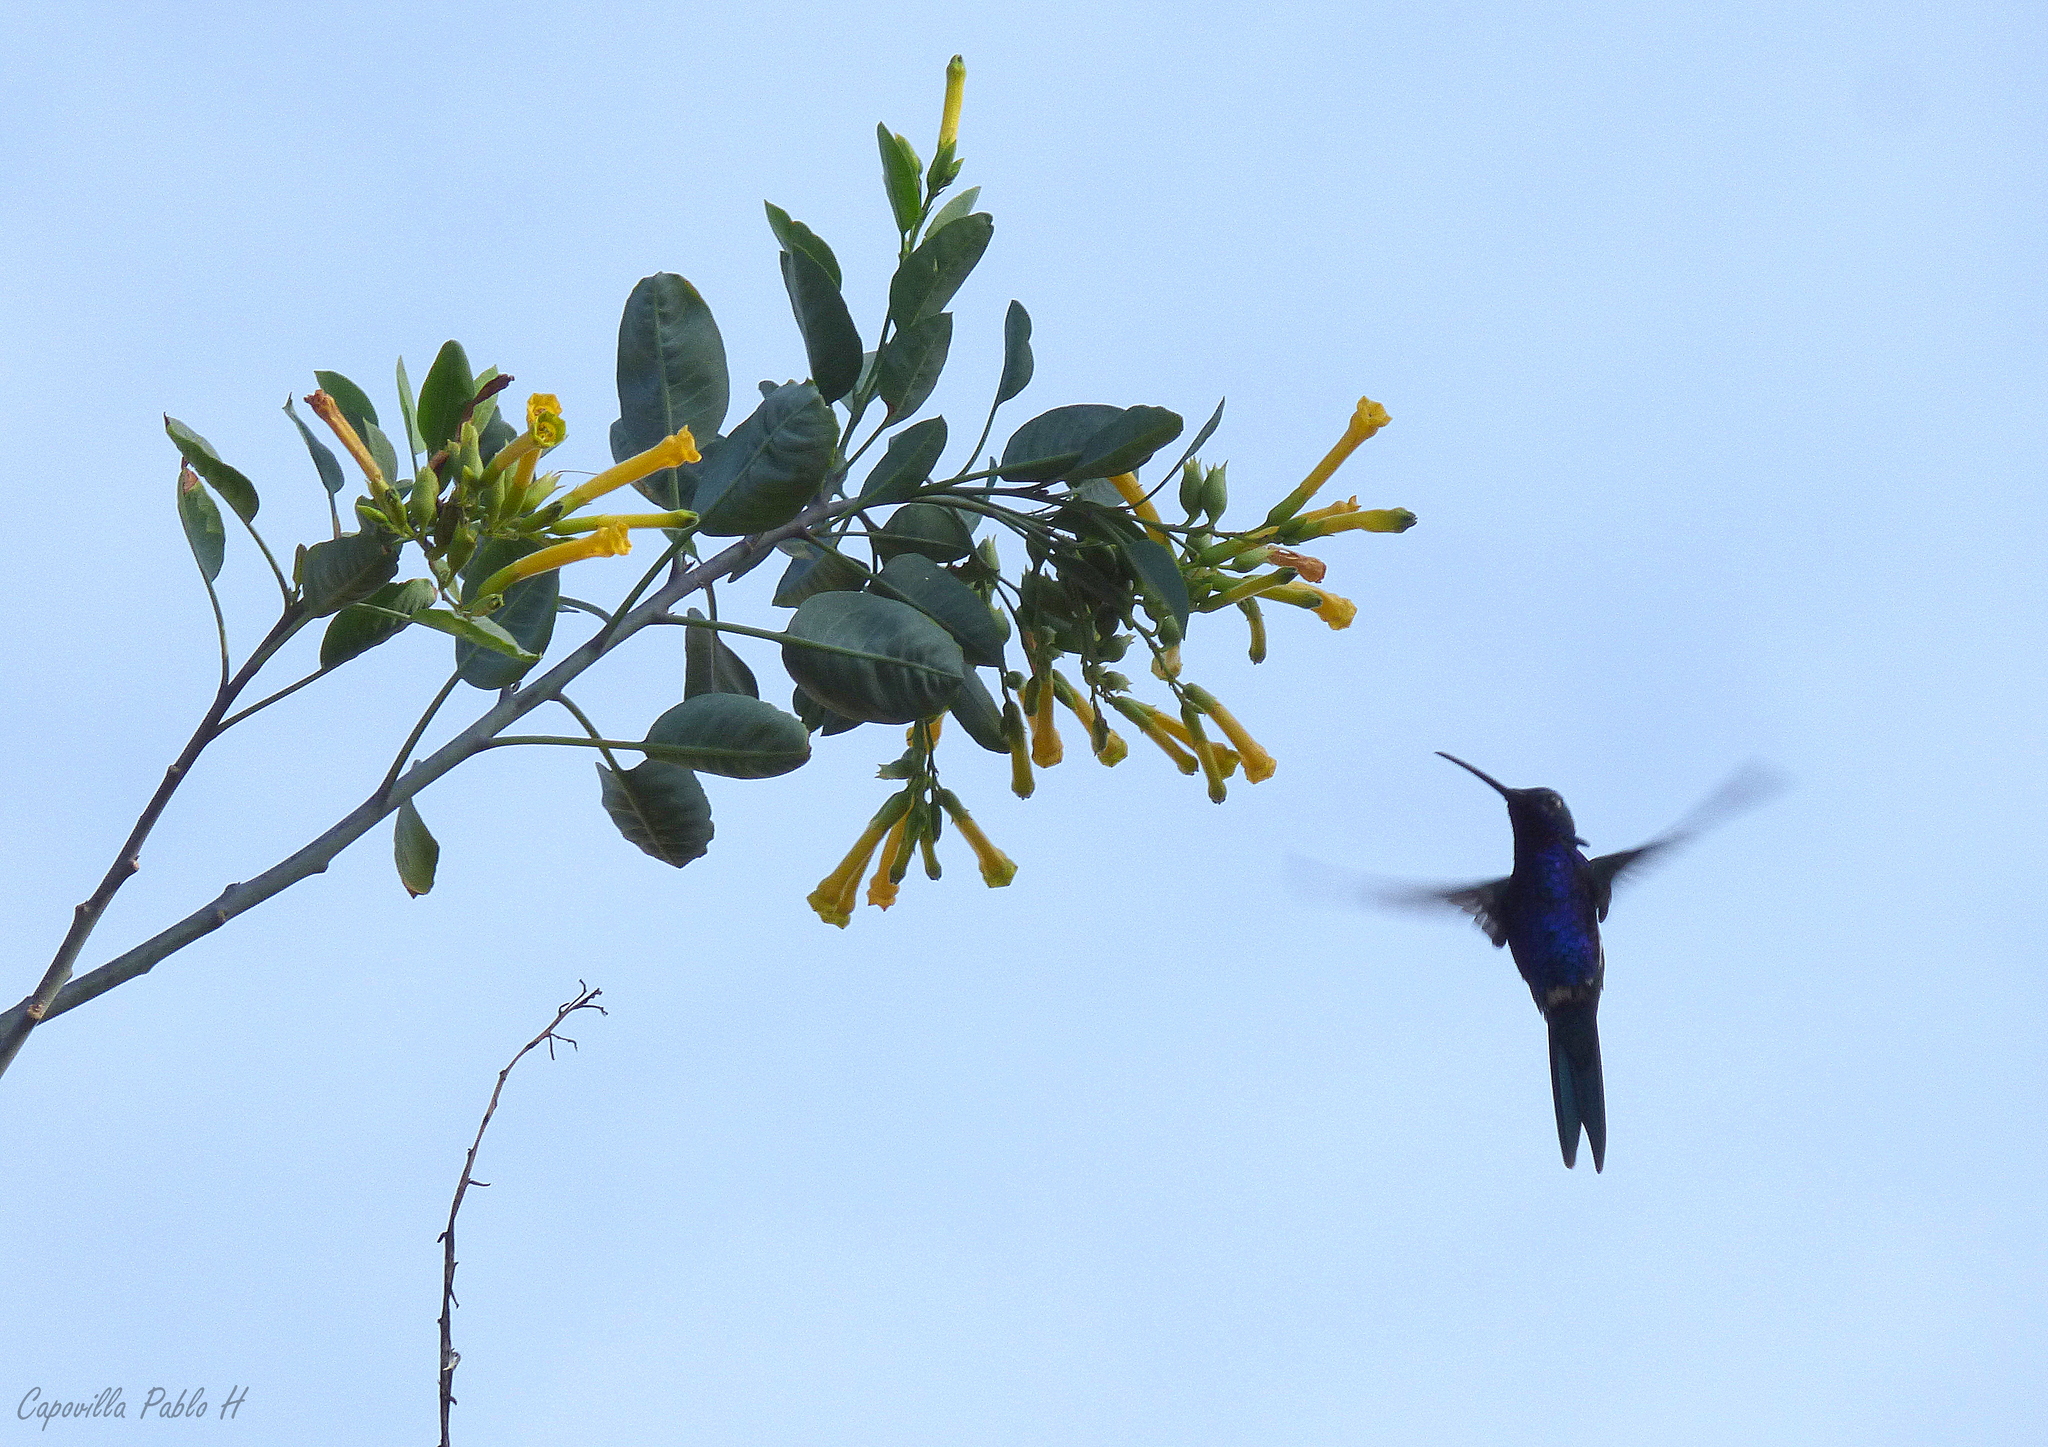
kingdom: Animalia
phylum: Chordata
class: Aves
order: Apodiformes
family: Trochilidae
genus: Heliomaster
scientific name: Heliomaster furcifer
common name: Blue-tufted starthroat
